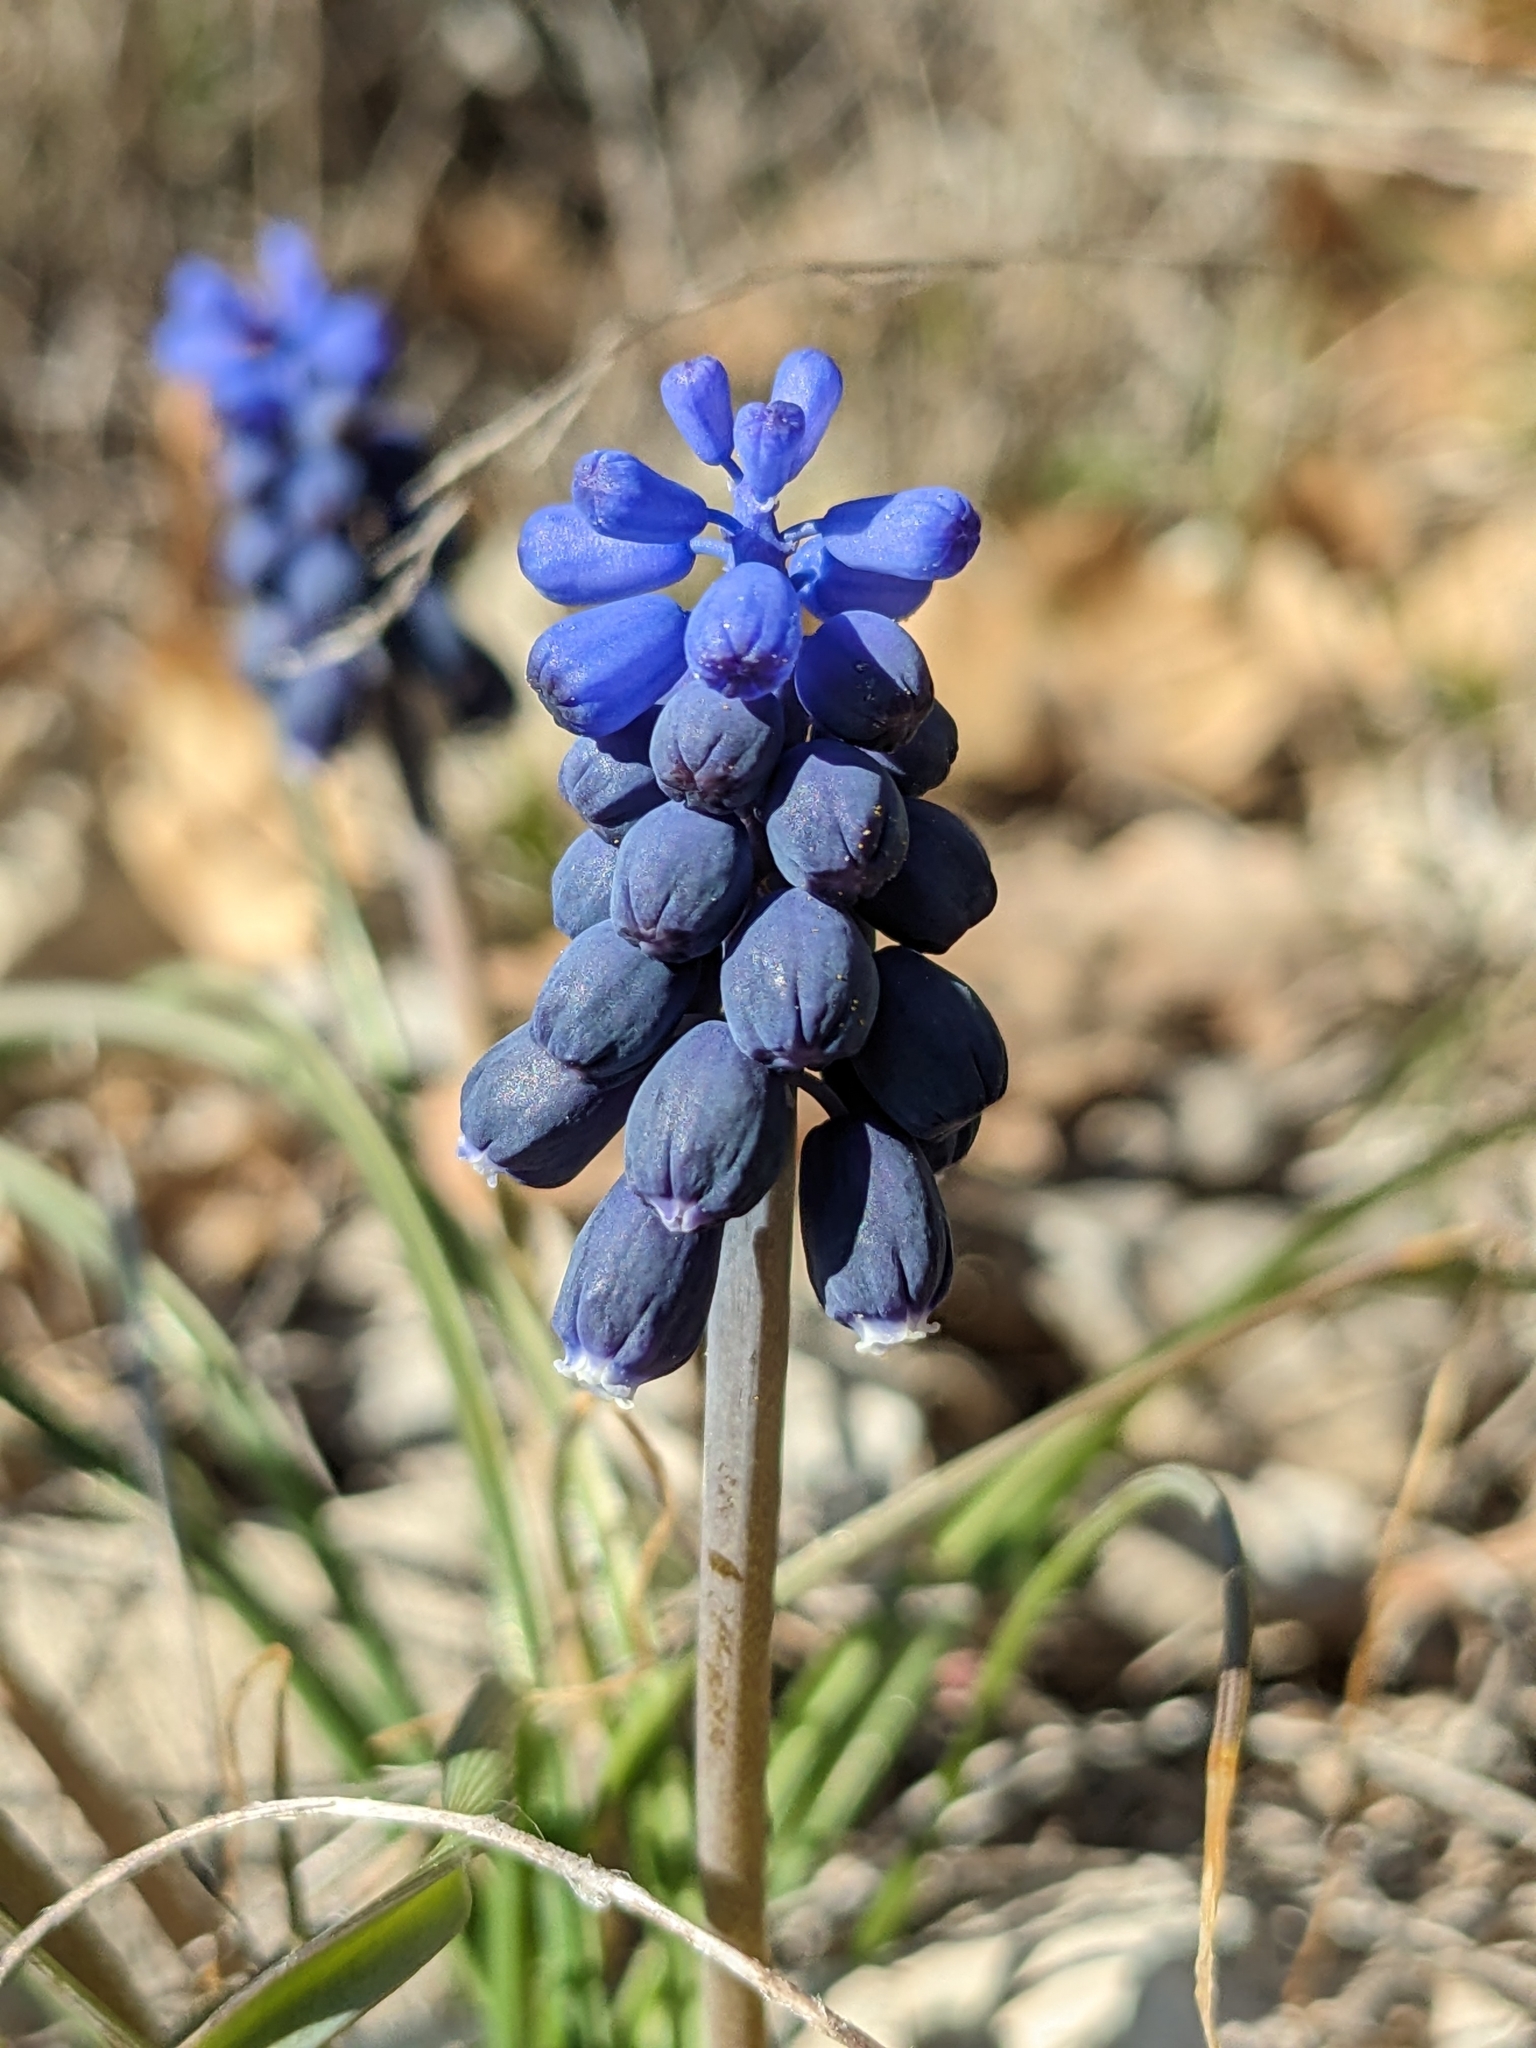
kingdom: Plantae
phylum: Tracheophyta
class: Liliopsida
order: Asparagales
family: Asparagaceae
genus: Muscari
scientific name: Muscari neglectum
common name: Grape-hyacinth
